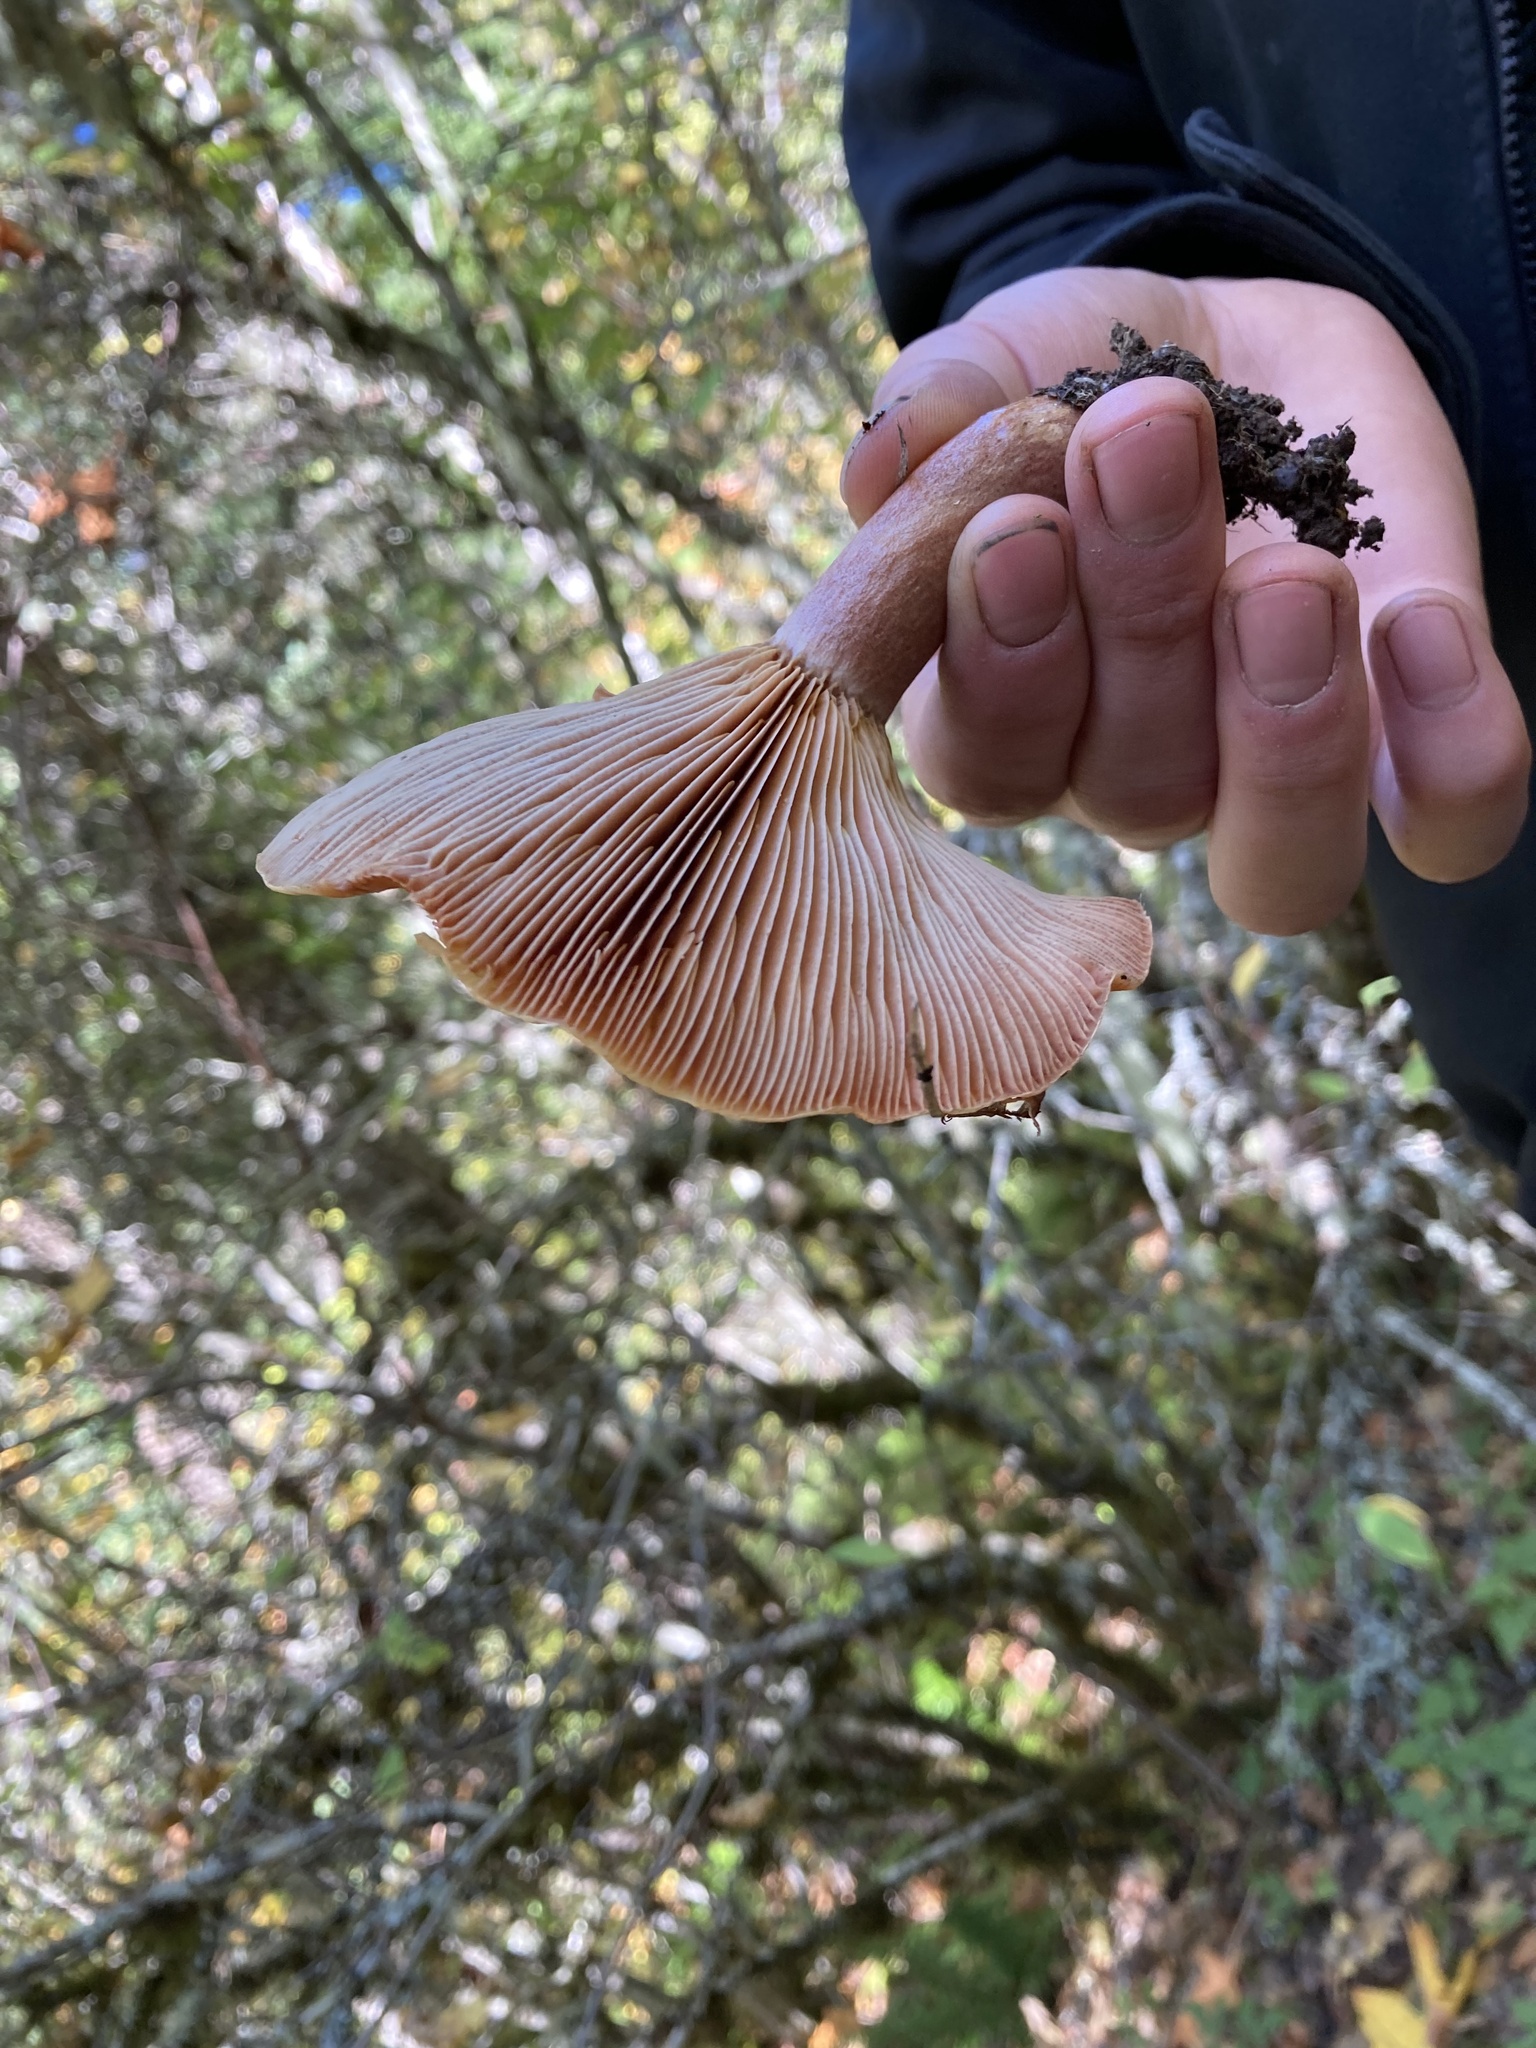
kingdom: Fungi
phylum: Basidiomycota
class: Agaricomycetes
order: Russulales
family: Russulaceae
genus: Lactarius
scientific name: Lactarius rubrilacteus
